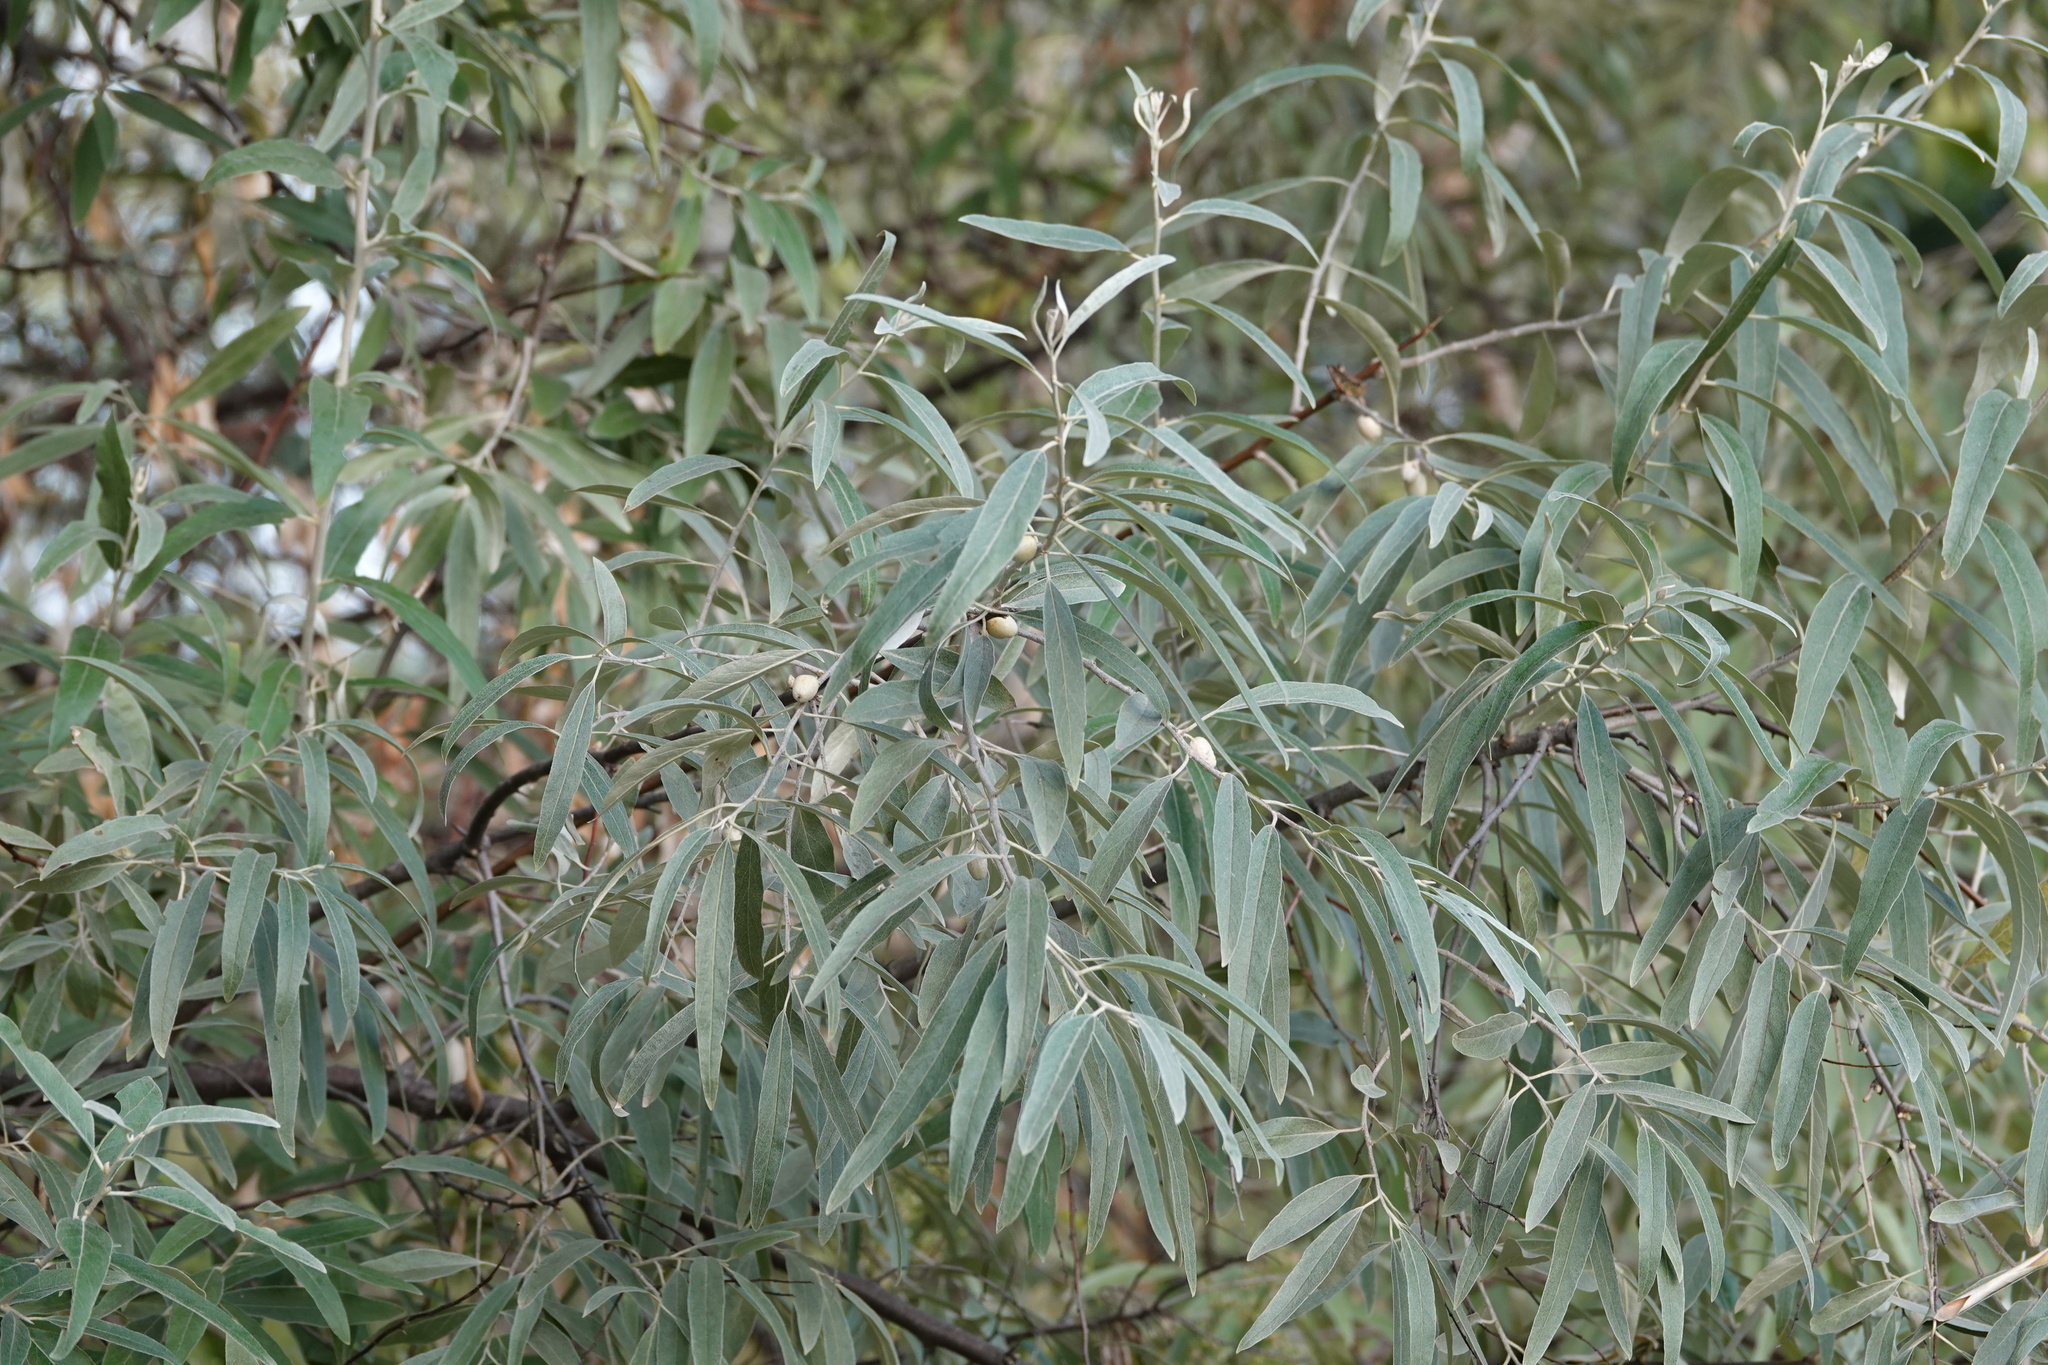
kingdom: Plantae
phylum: Tracheophyta
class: Magnoliopsida
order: Rosales
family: Elaeagnaceae
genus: Elaeagnus
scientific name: Elaeagnus angustifolia
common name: Russian olive
